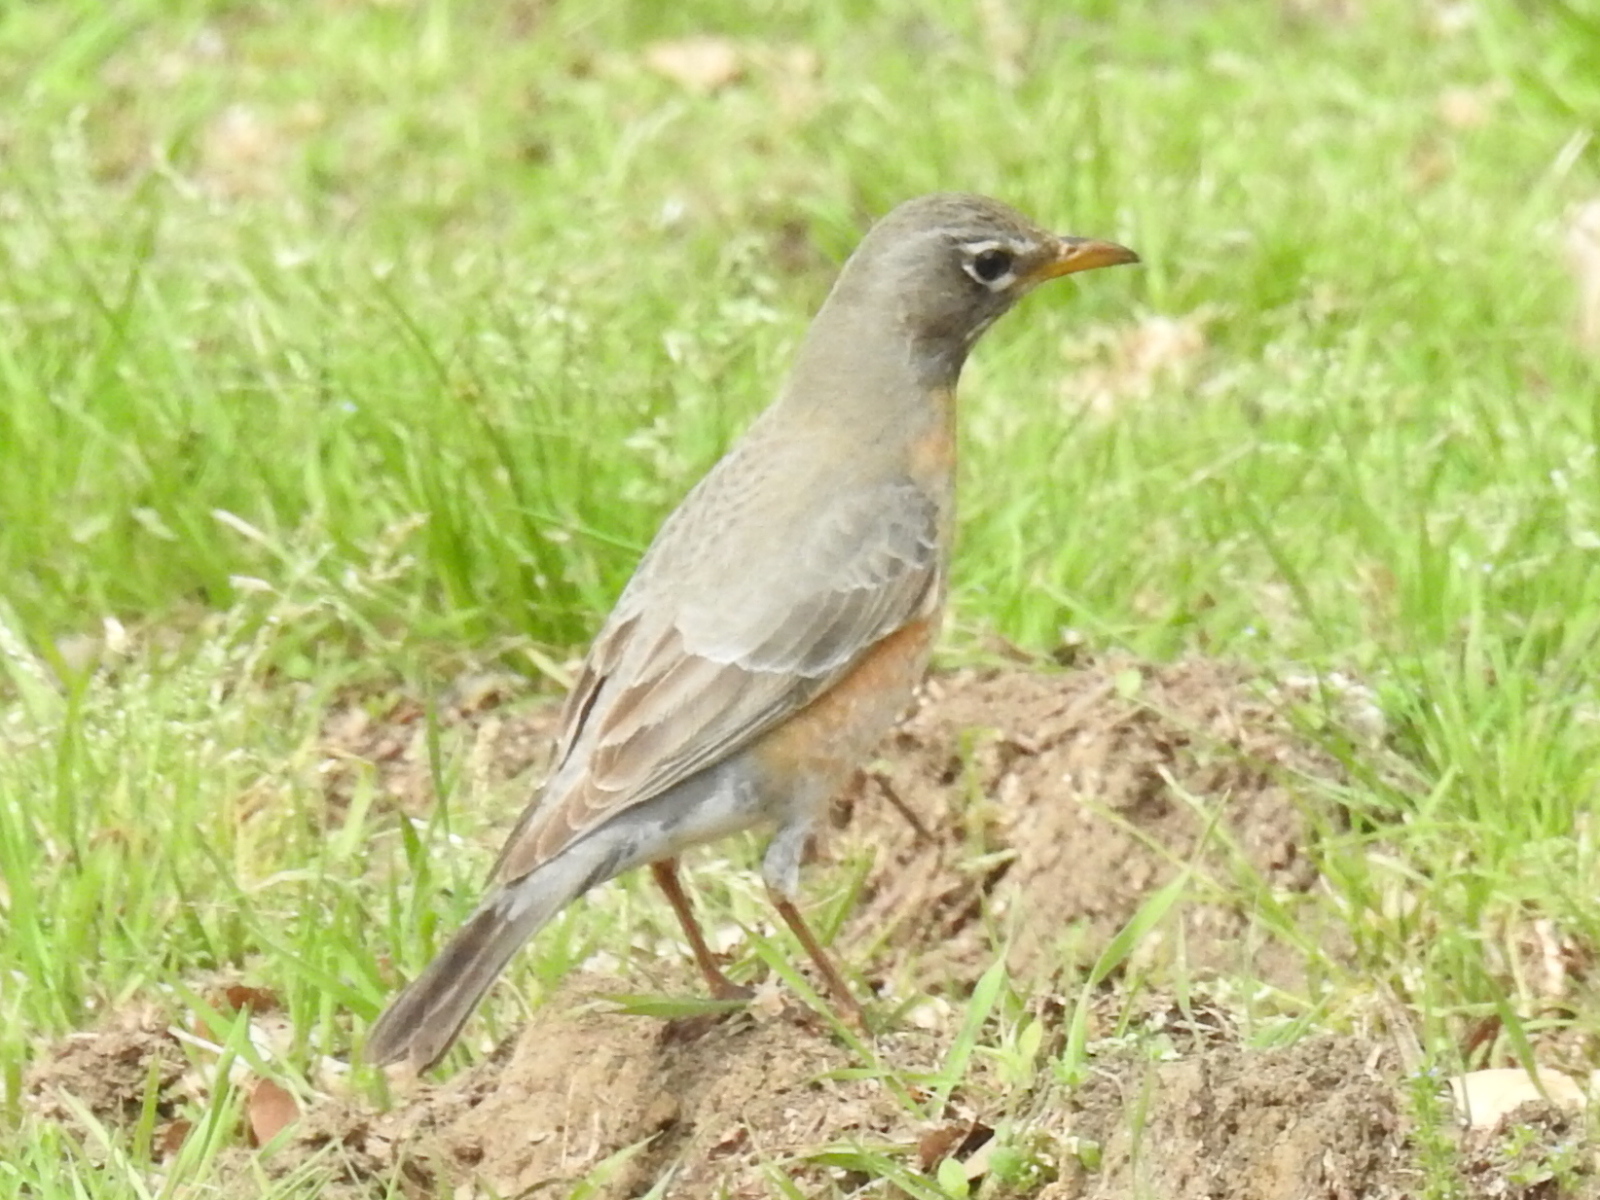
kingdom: Animalia
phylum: Chordata
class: Aves
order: Passeriformes
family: Turdidae
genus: Turdus
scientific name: Turdus migratorius
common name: American robin
